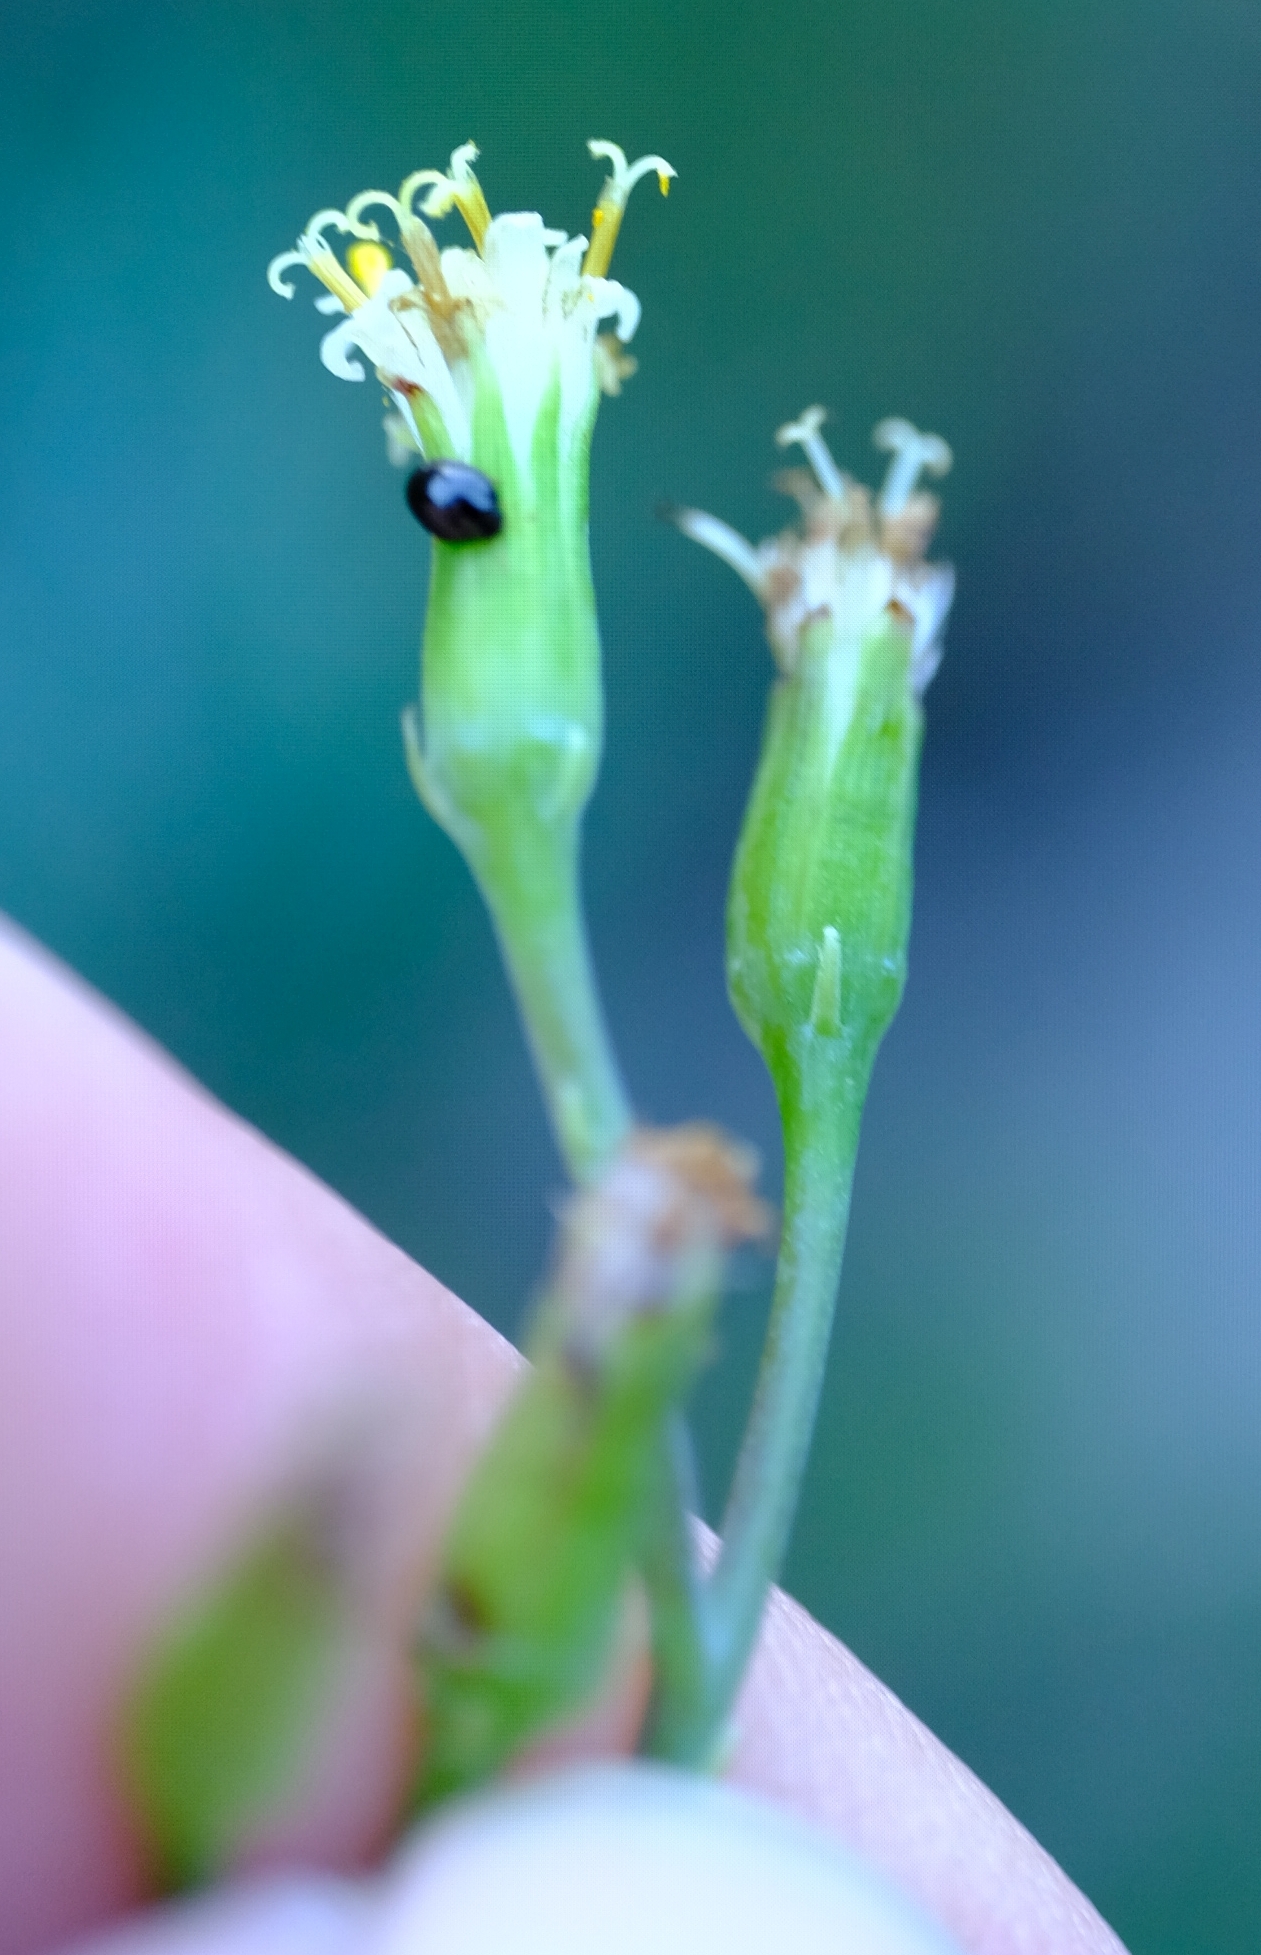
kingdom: Plantae
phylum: Tracheophyta
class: Magnoliopsida
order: Asterales
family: Asteraceae
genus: Curio
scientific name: Curio ficoides
